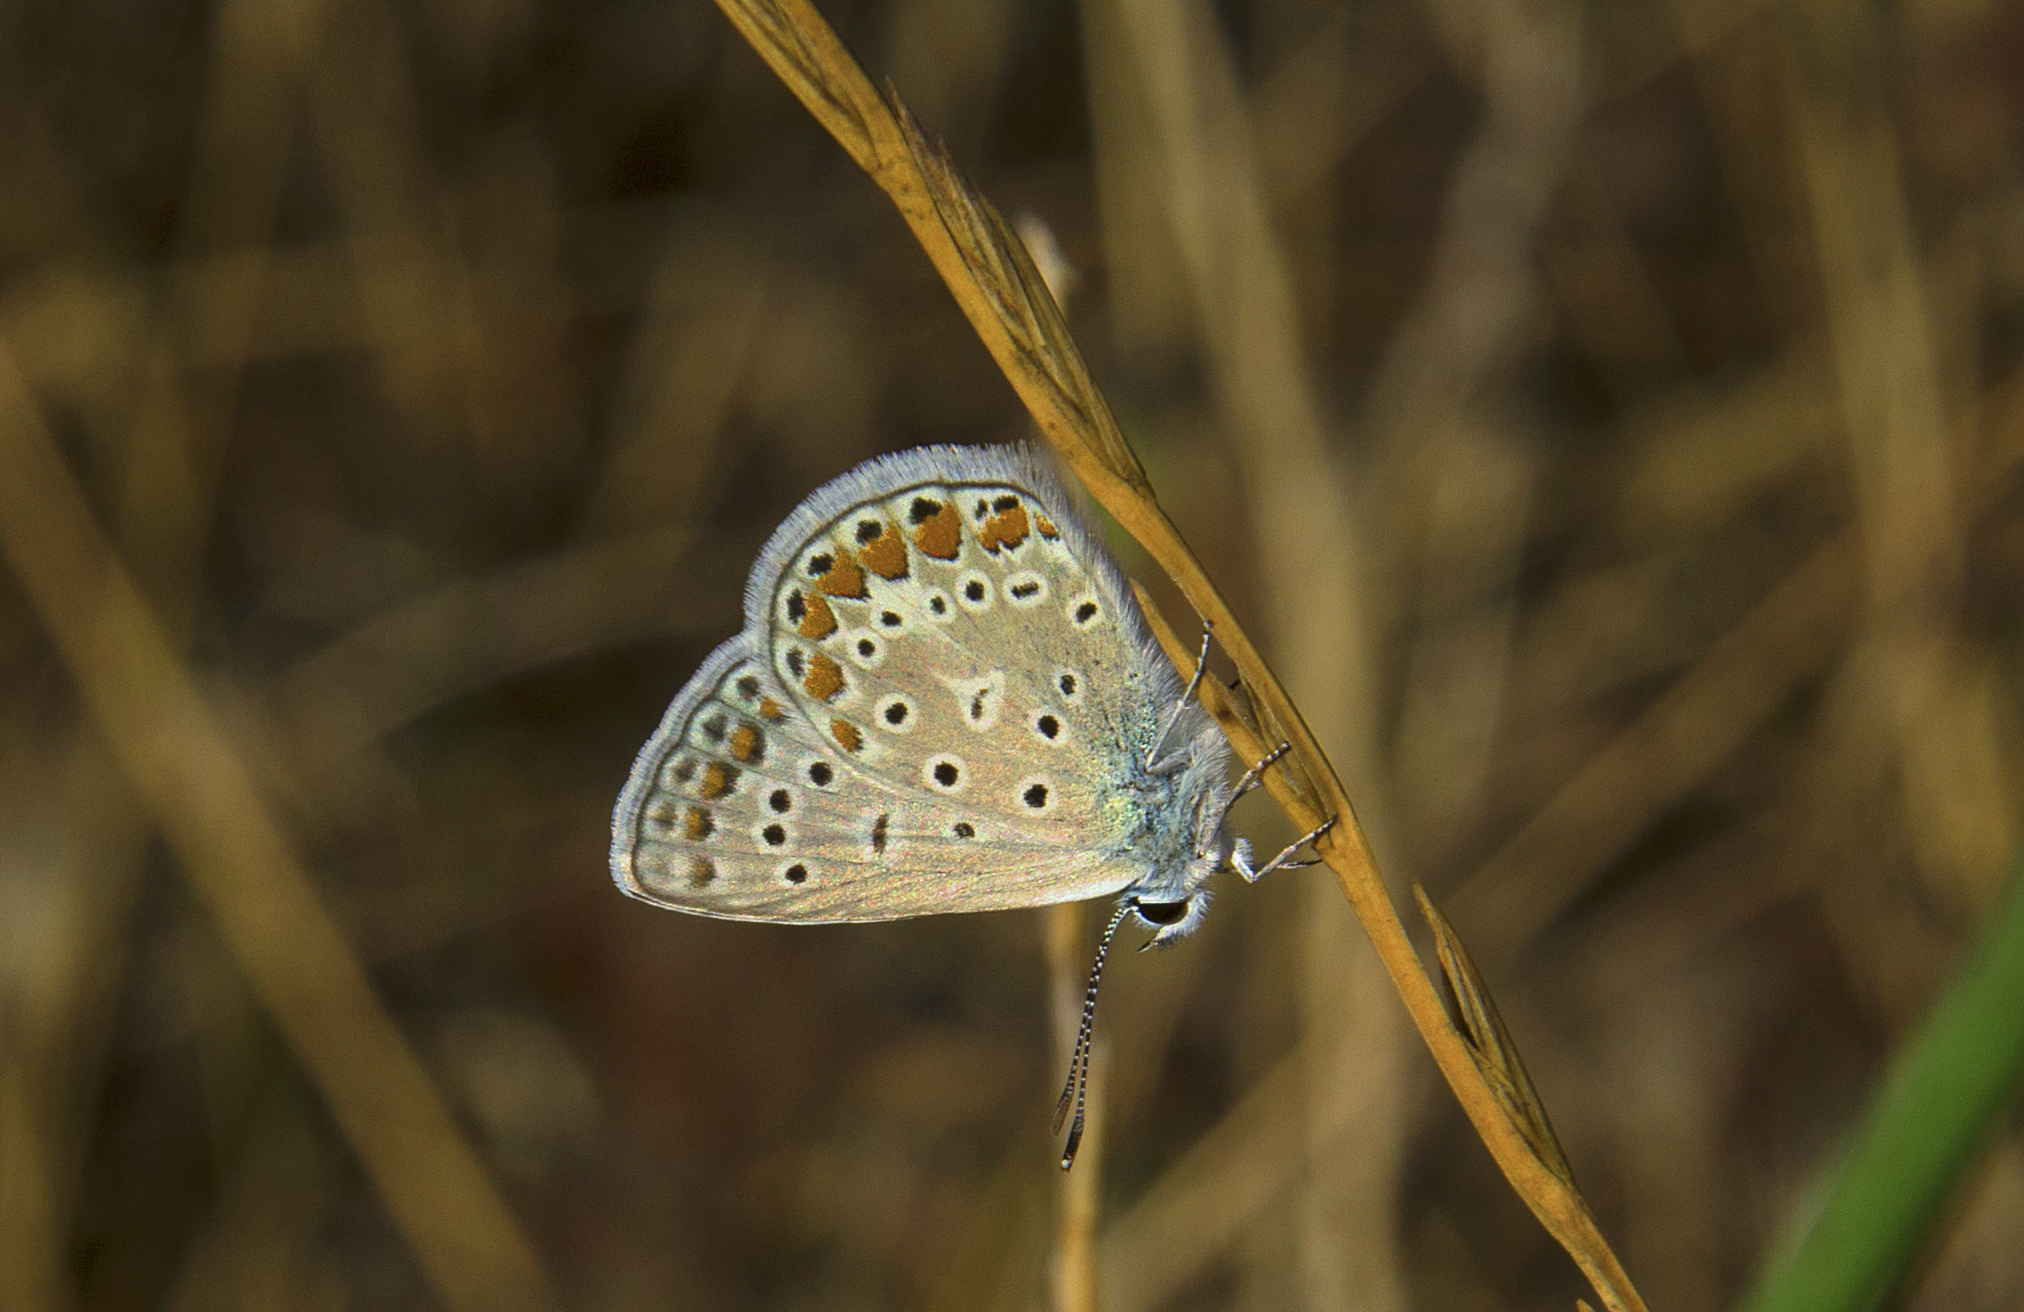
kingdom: Animalia
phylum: Arthropoda
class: Insecta
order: Lepidoptera
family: Lycaenidae
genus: Polyommatus
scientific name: Polyommatus icarus
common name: Common blue
